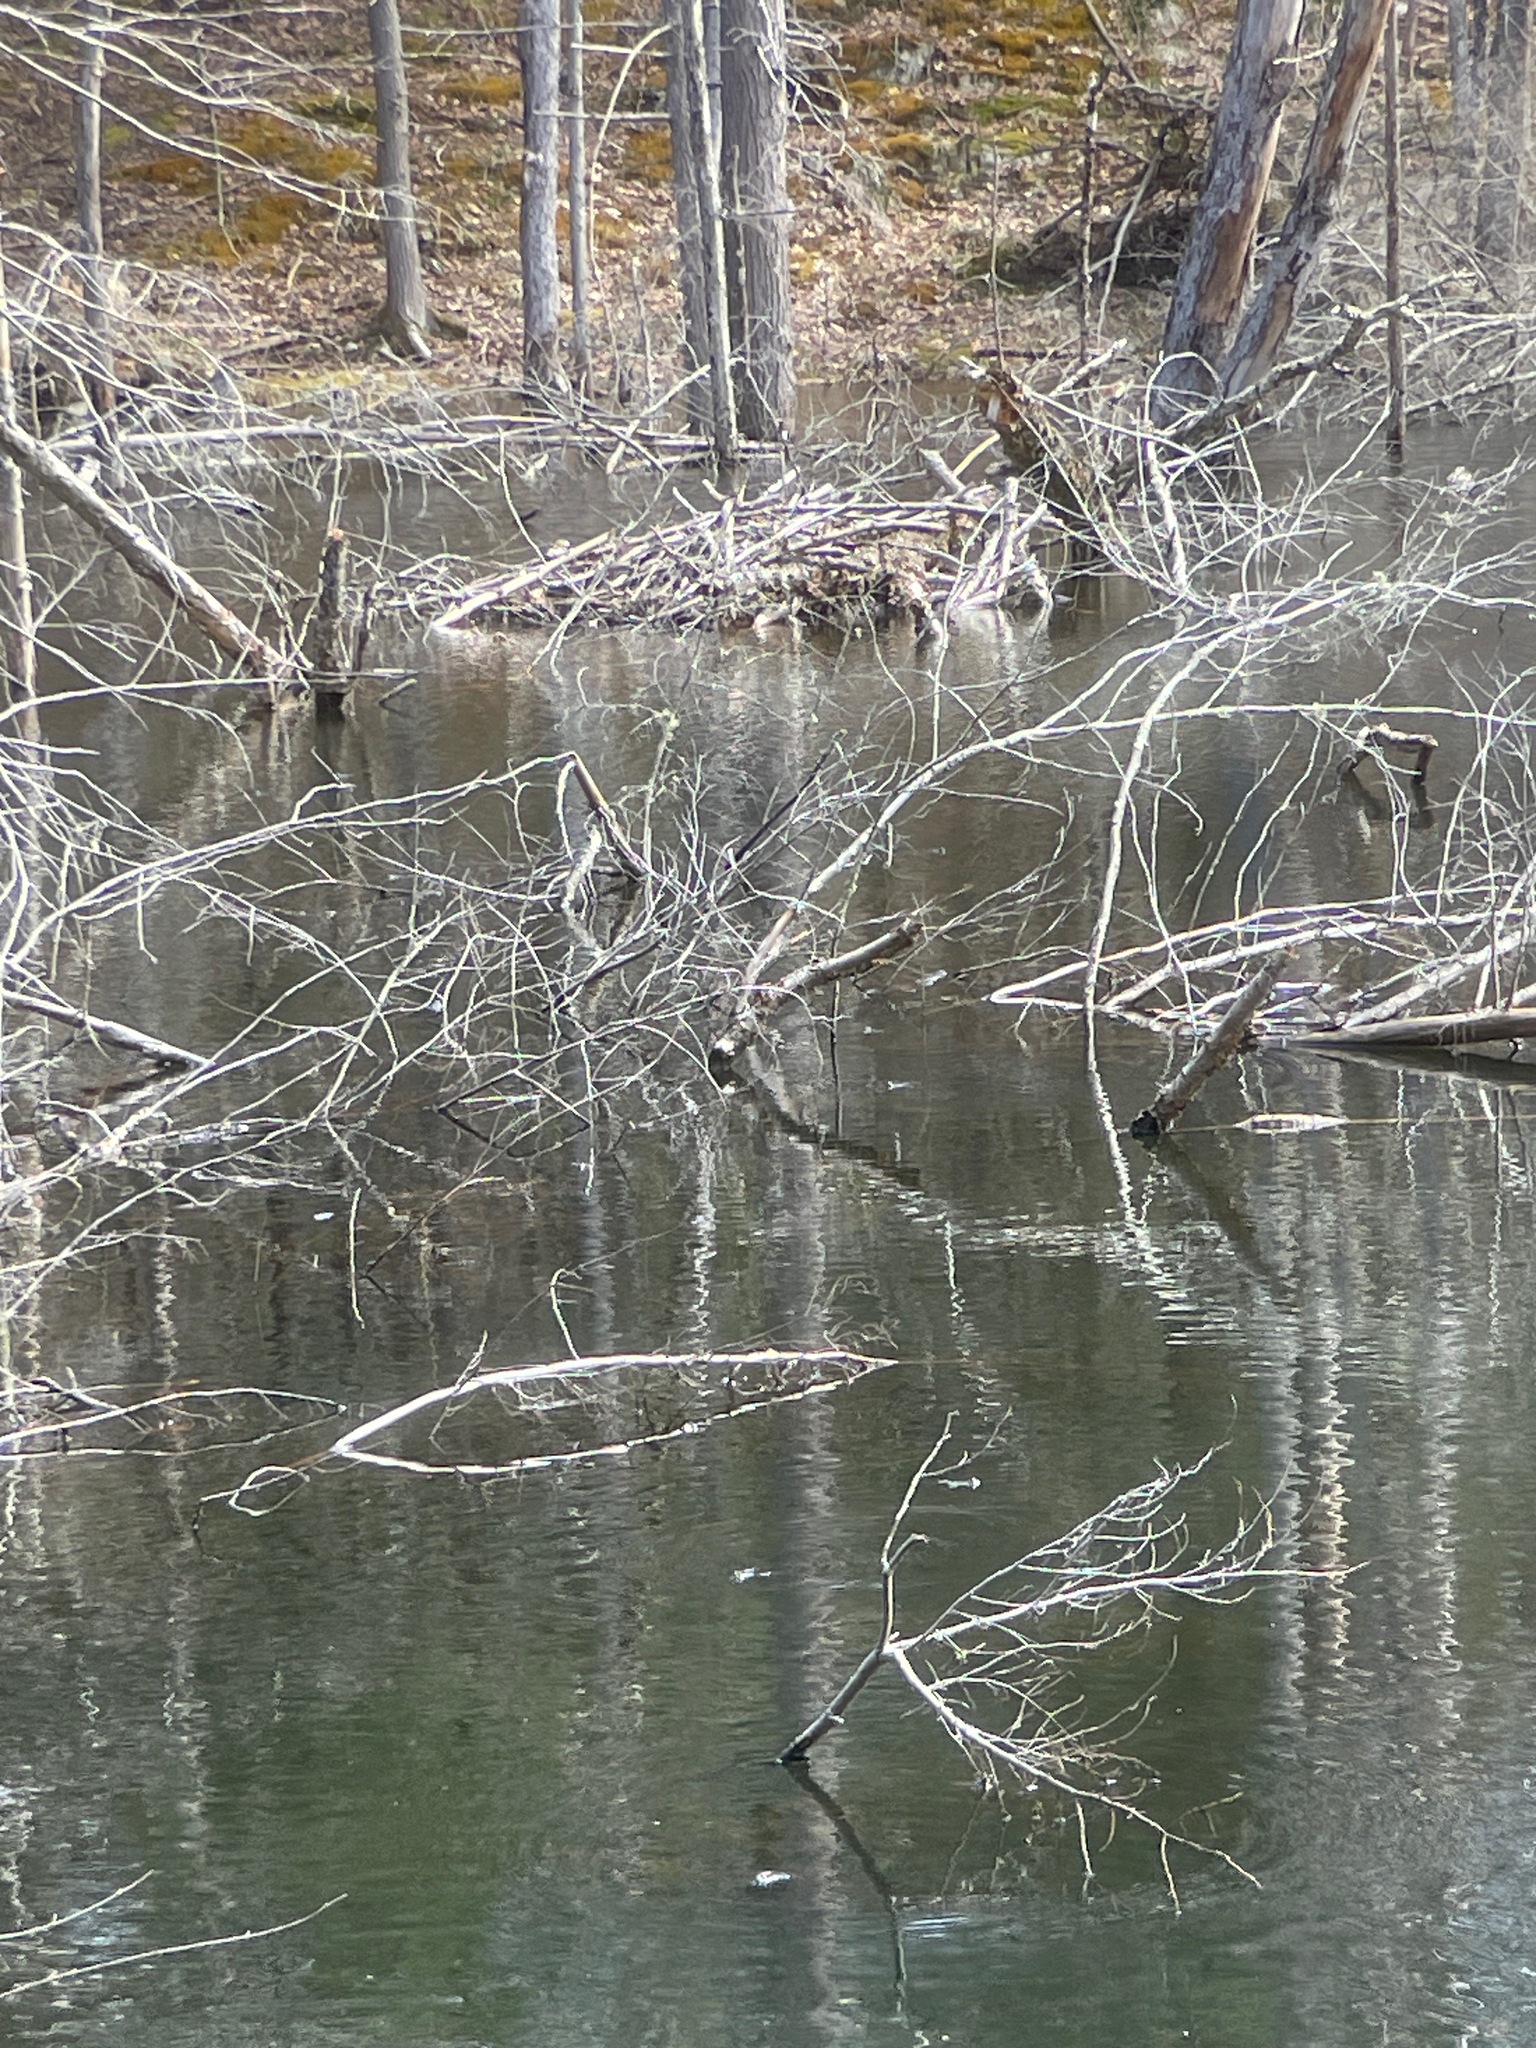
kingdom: Animalia
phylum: Chordata
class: Mammalia
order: Rodentia
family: Castoridae
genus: Castor
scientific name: Castor canadensis
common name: American beaver
